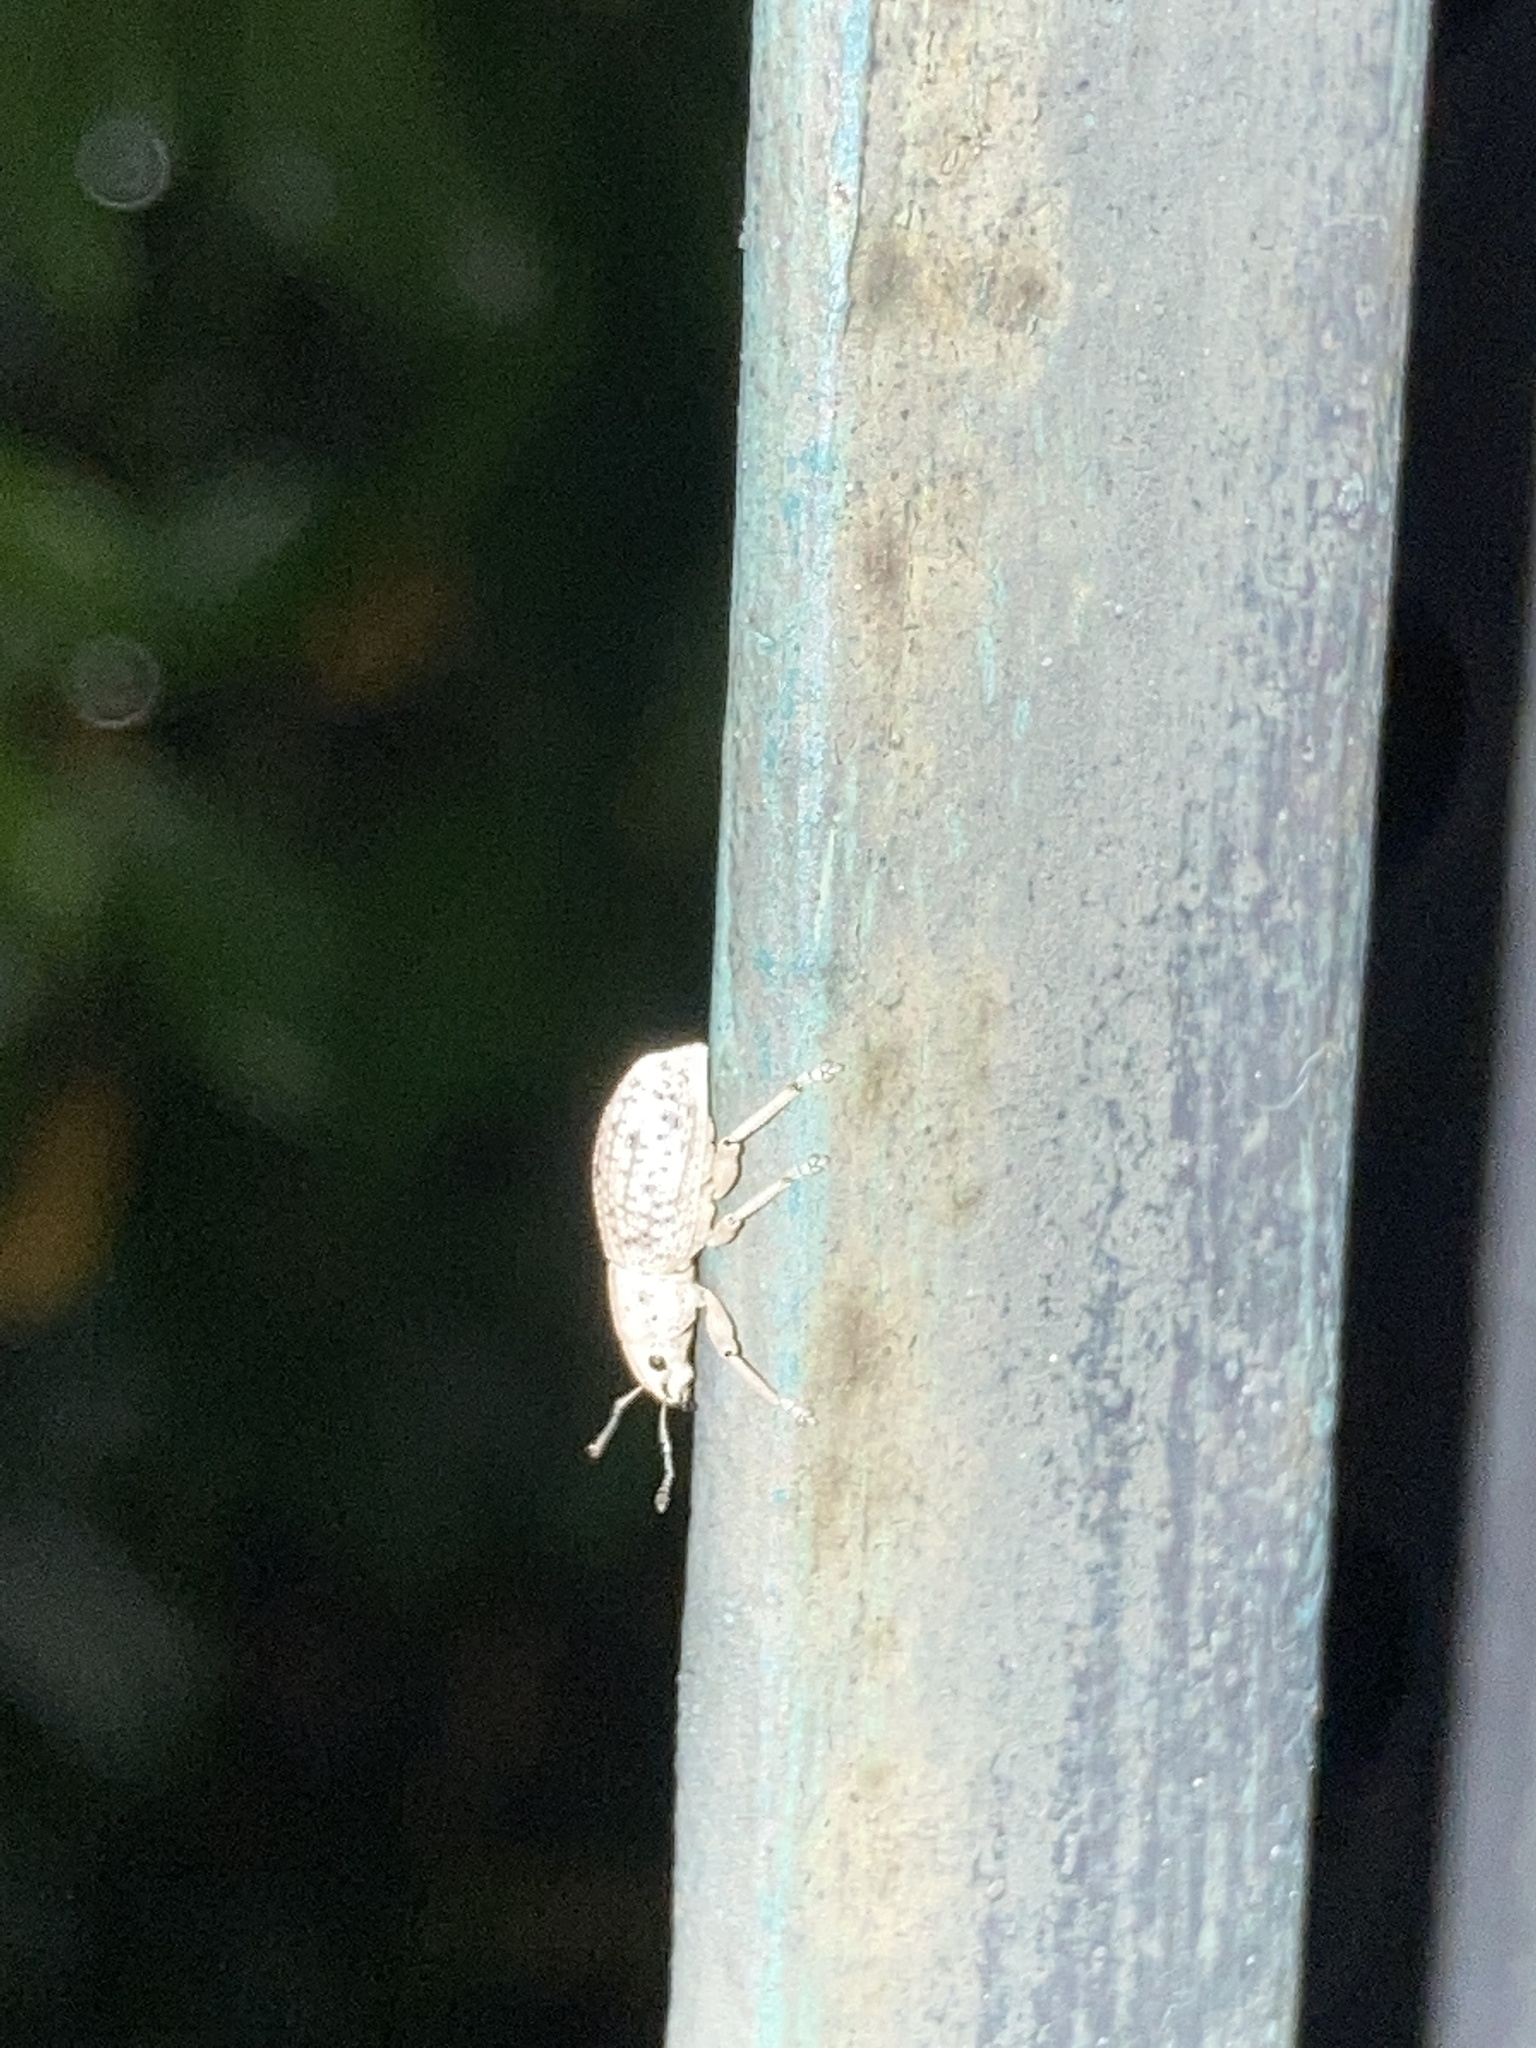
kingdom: Animalia
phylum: Arthropoda
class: Insecta
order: Coleoptera
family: Curculionidae
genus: Artipus
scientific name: Artipus floridanus
